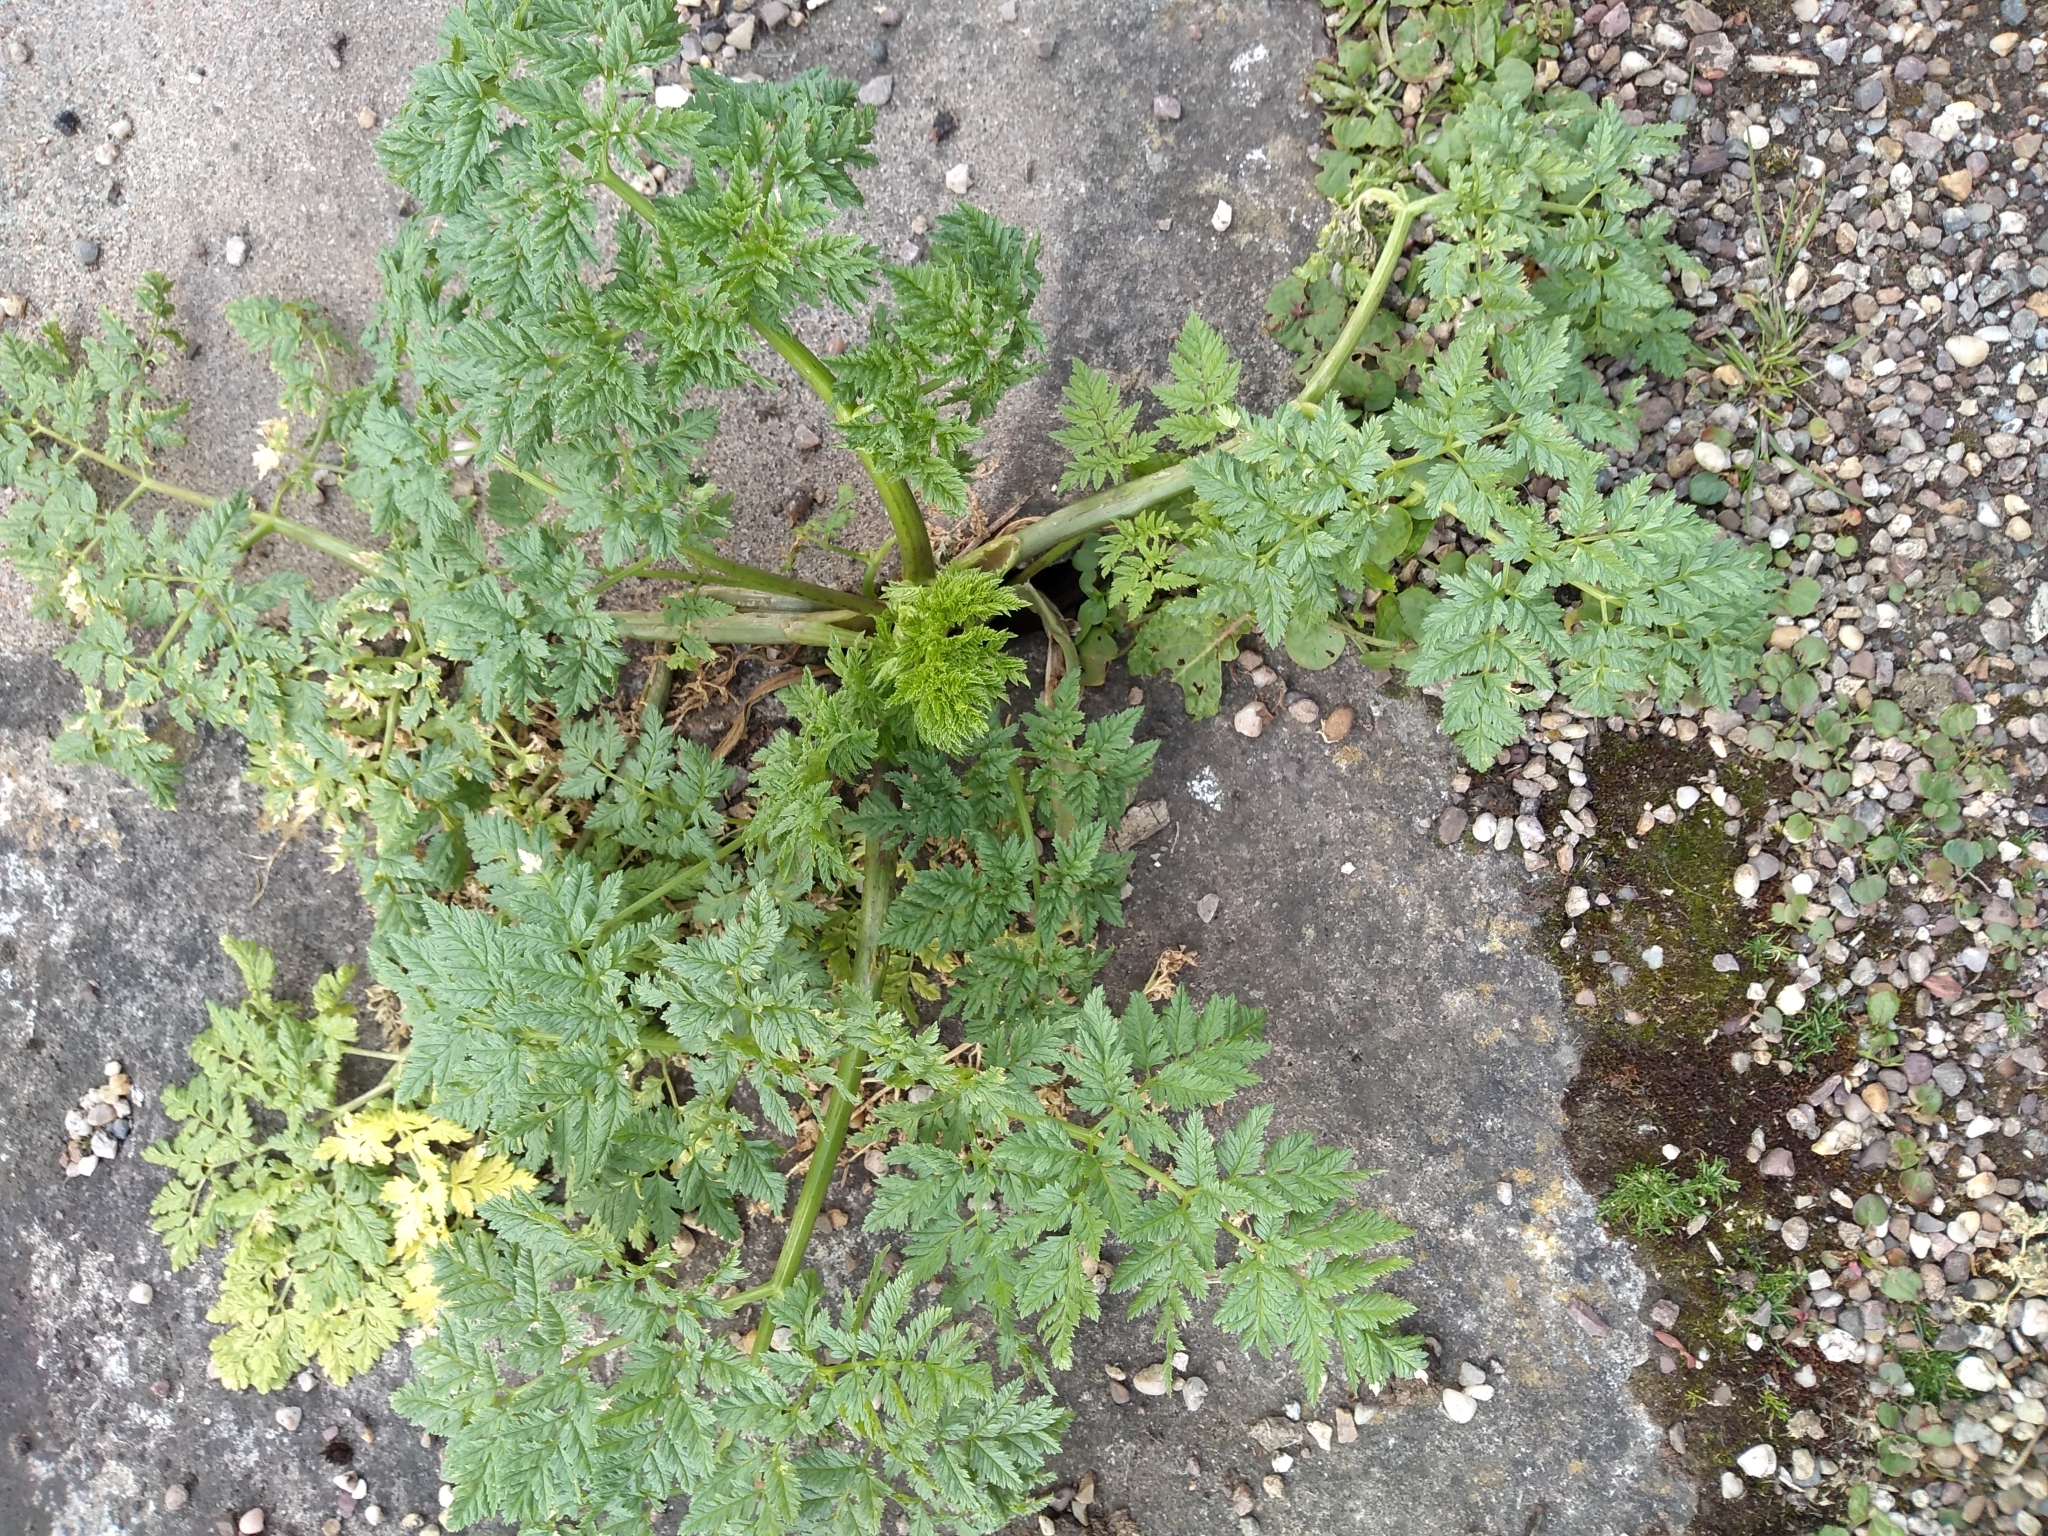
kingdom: Plantae
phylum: Tracheophyta
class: Magnoliopsida
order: Apiales
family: Apiaceae
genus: Conium
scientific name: Conium maculatum
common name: Hemlock
